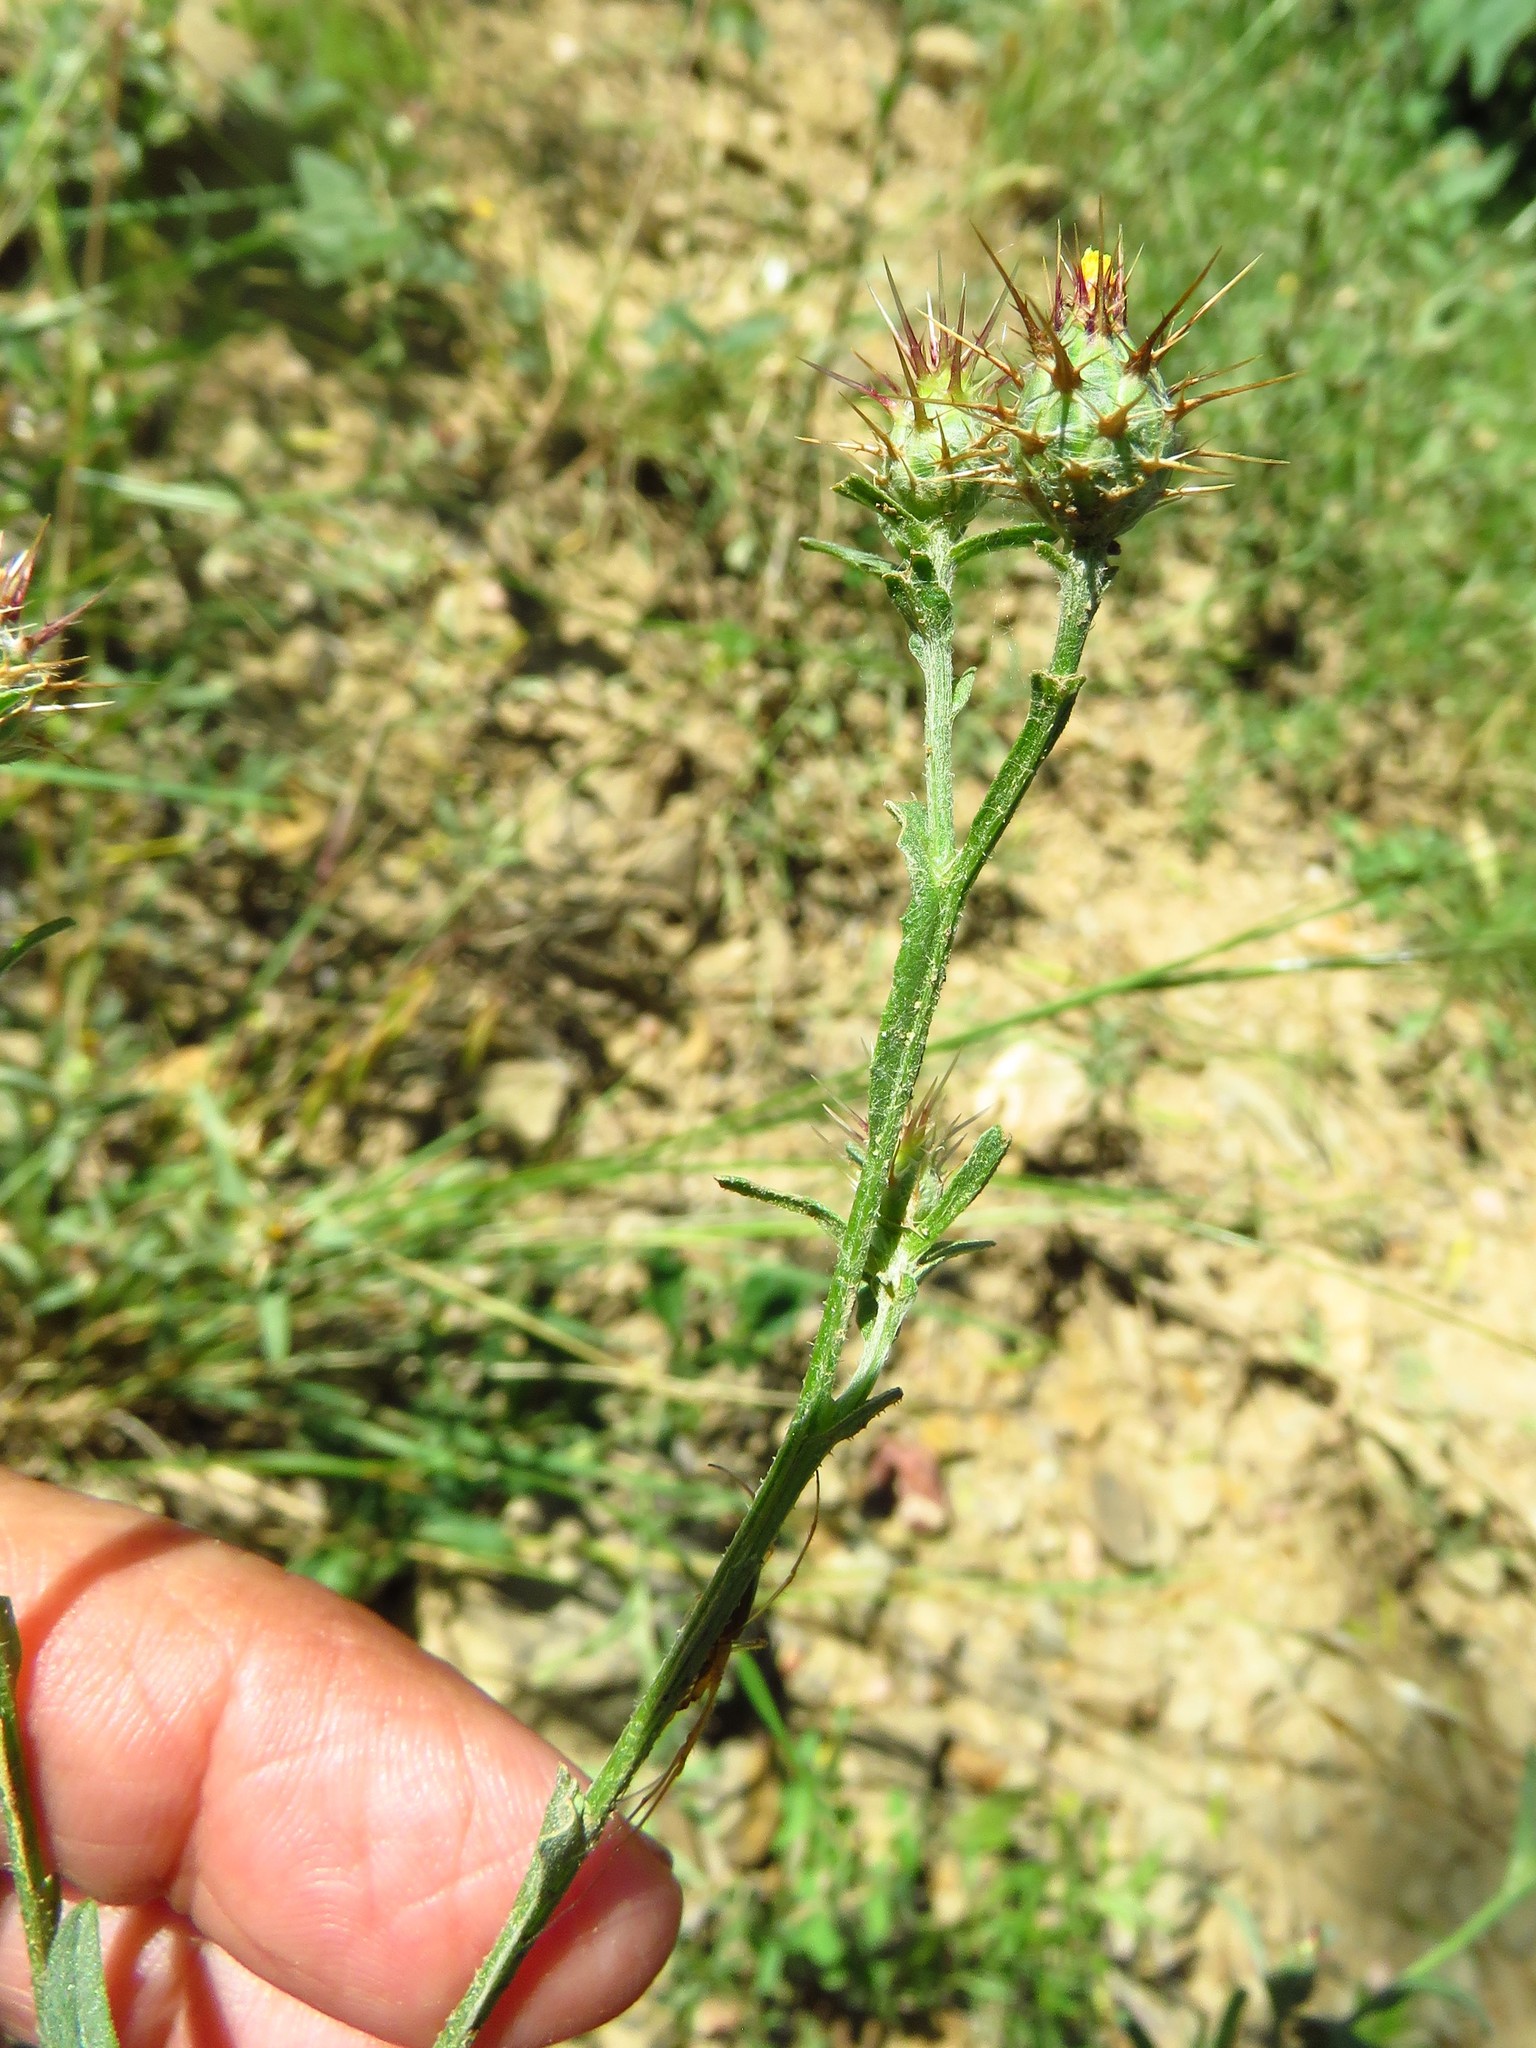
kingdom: Plantae
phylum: Tracheophyta
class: Magnoliopsida
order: Asterales
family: Asteraceae
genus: Centaurea
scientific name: Centaurea melitensis
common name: Maltese star-thistle
